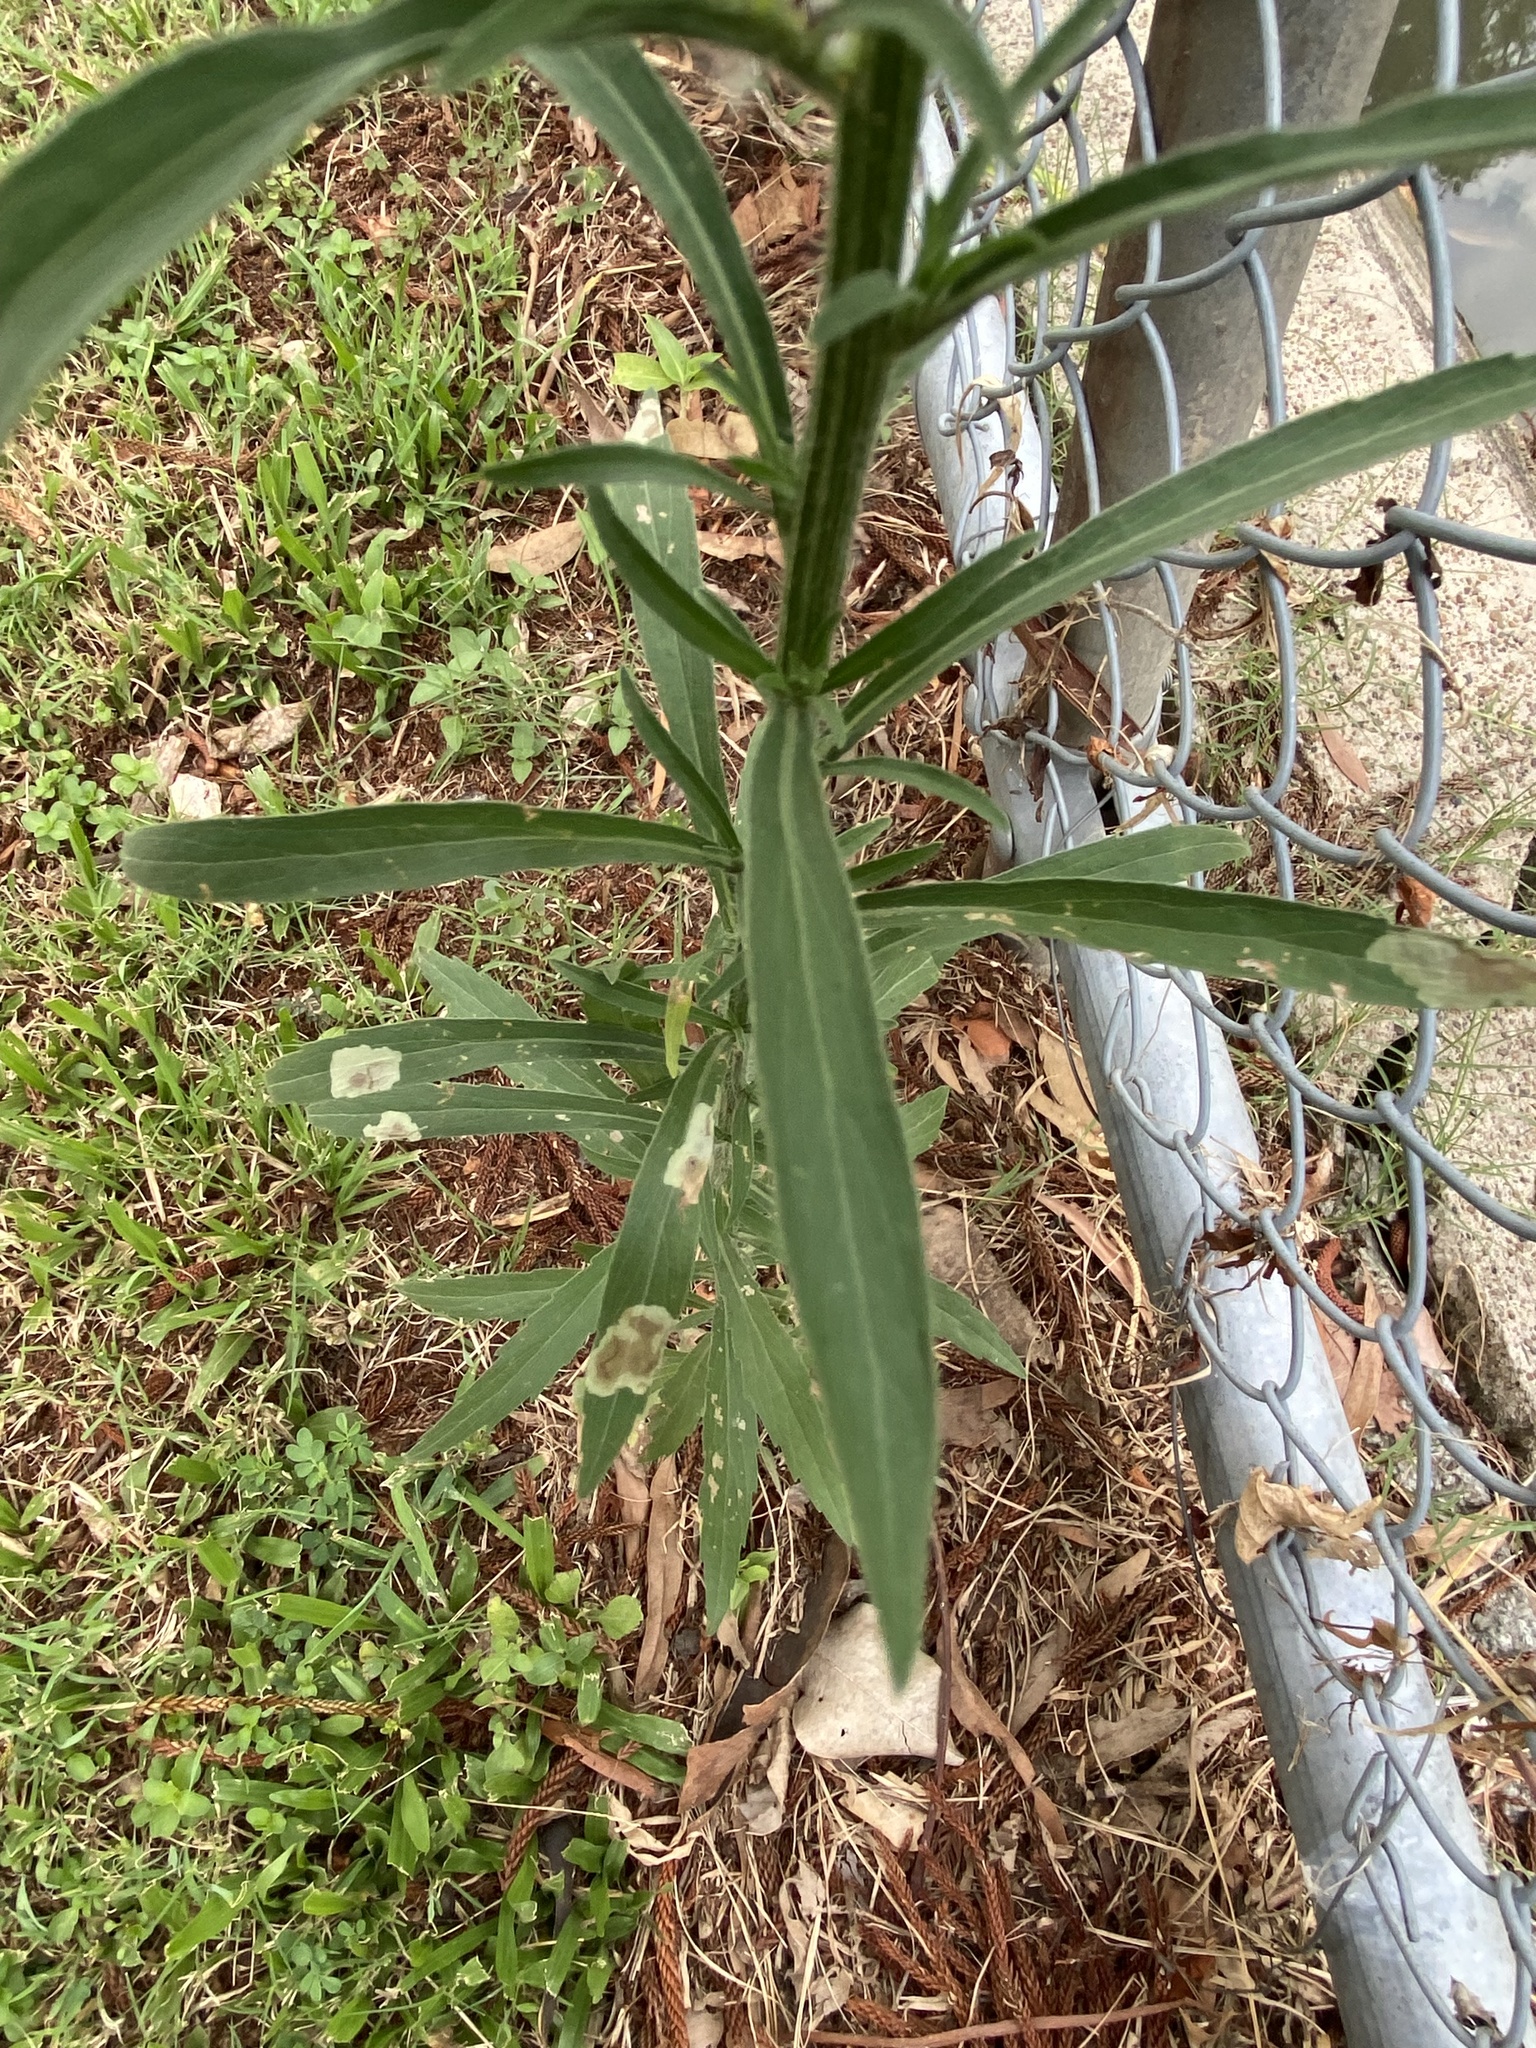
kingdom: Plantae
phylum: Tracheophyta
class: Magnoliopsida
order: Asterales
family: Asteraceae
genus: Erigeron
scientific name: Erigeron sumatrensis
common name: Daisy
